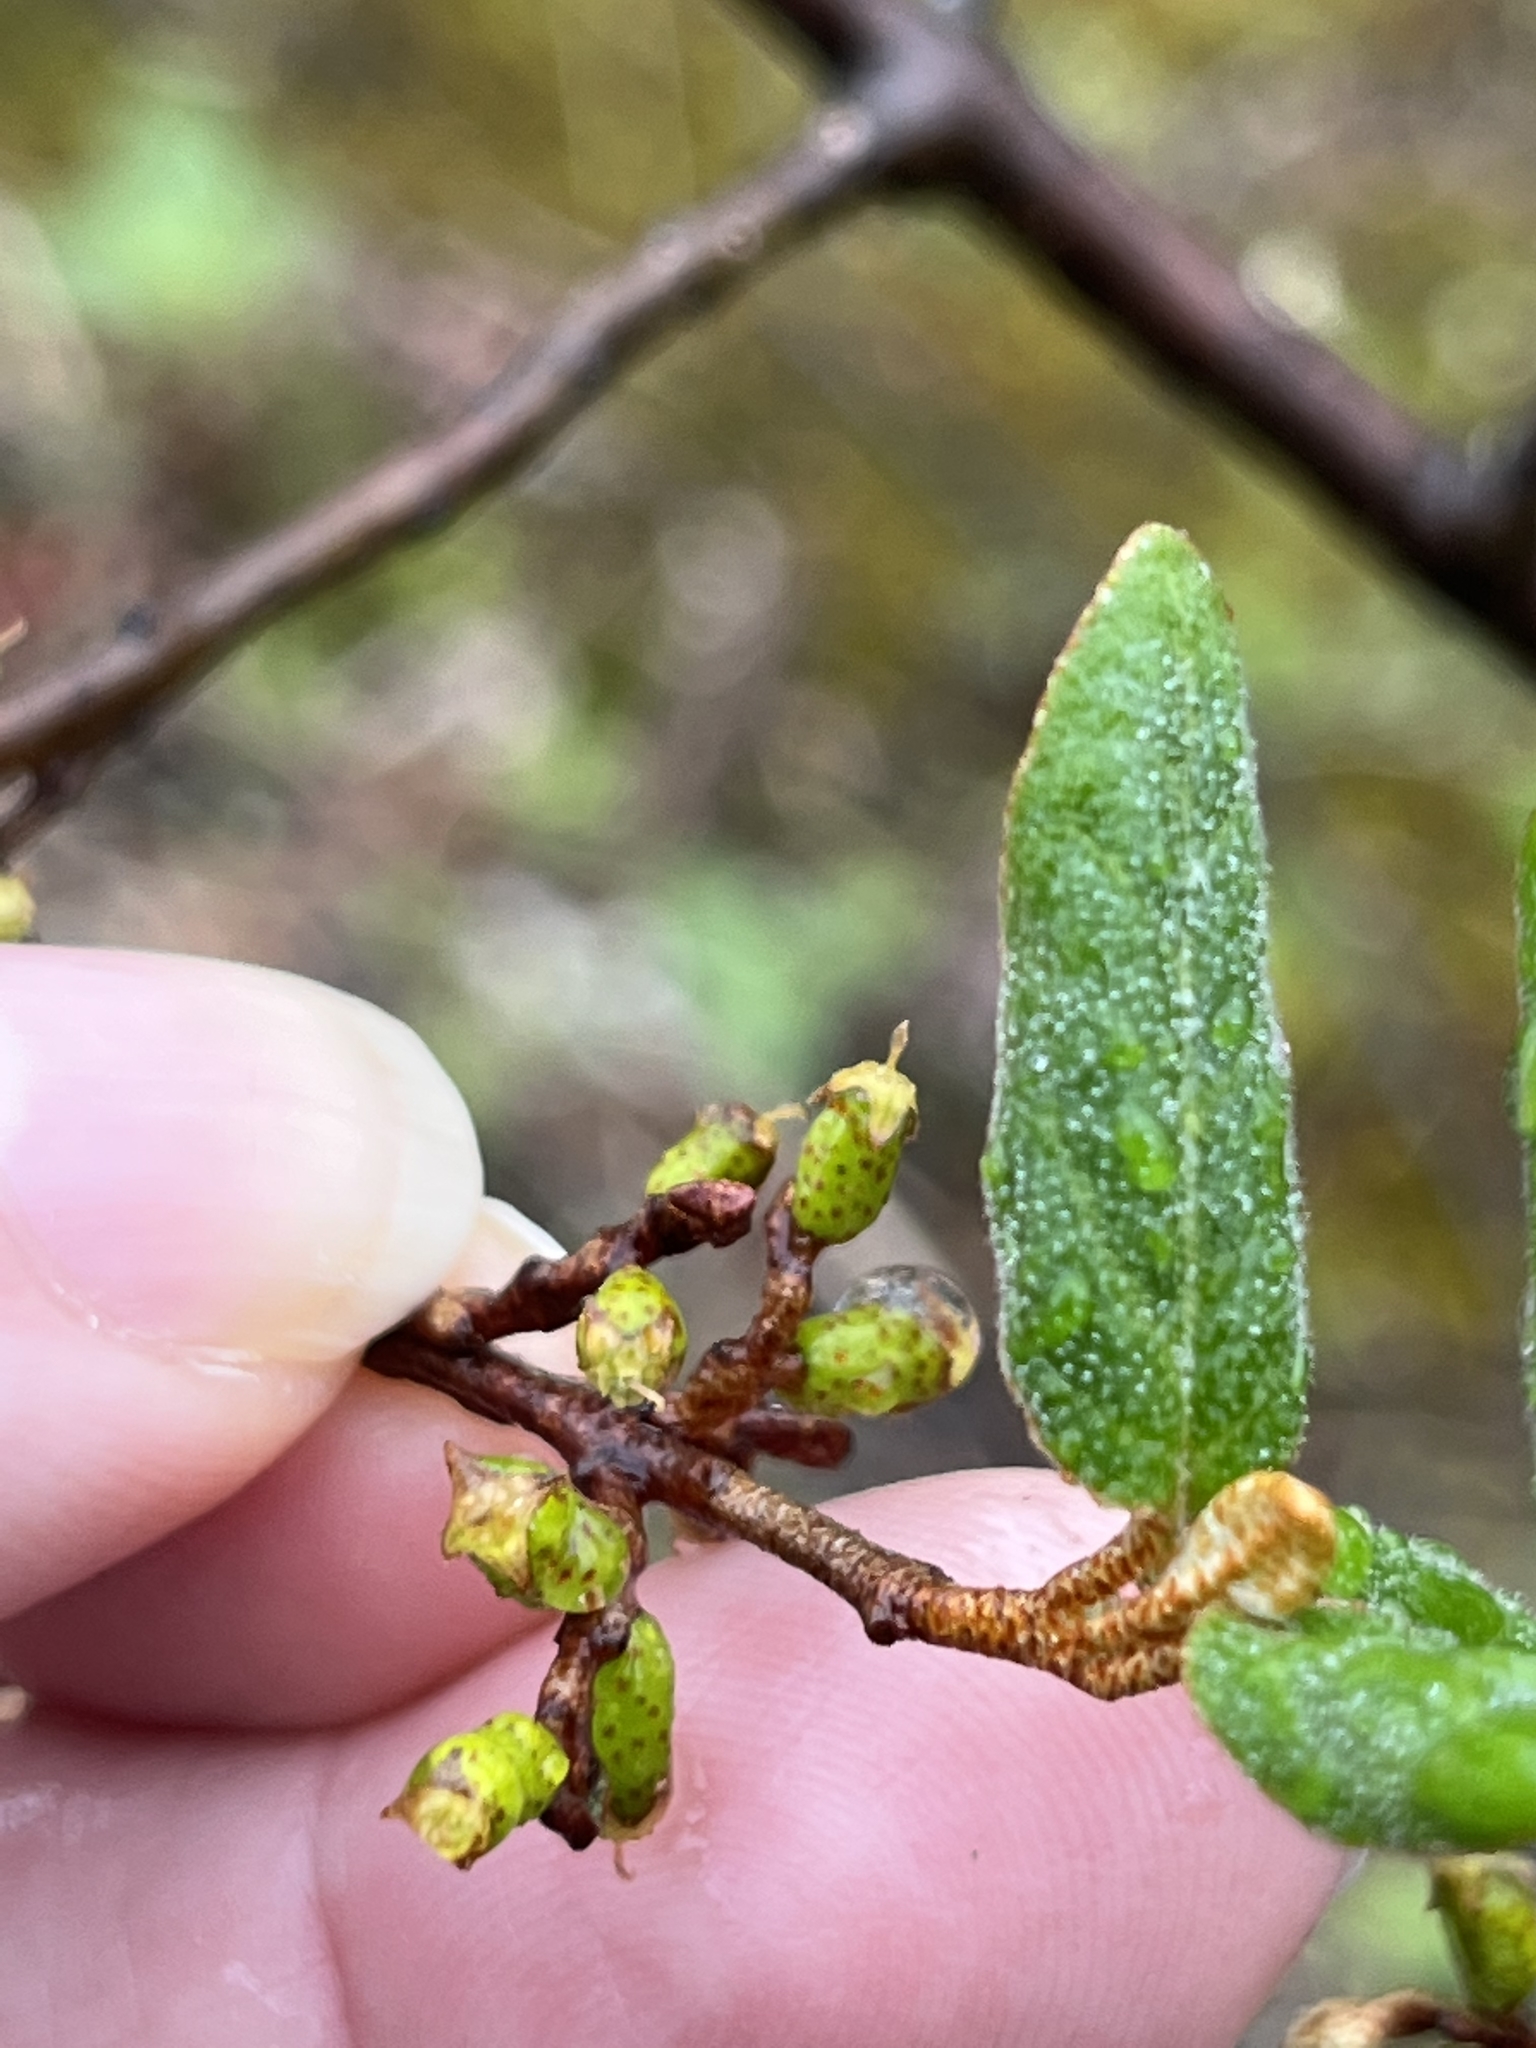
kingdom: Plantae
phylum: Tracheophyta
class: Magnoliopsida
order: Rosales
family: Elaeagnaceae
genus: Shepherdia
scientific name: Shepherdia canadensis
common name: Soapberry
